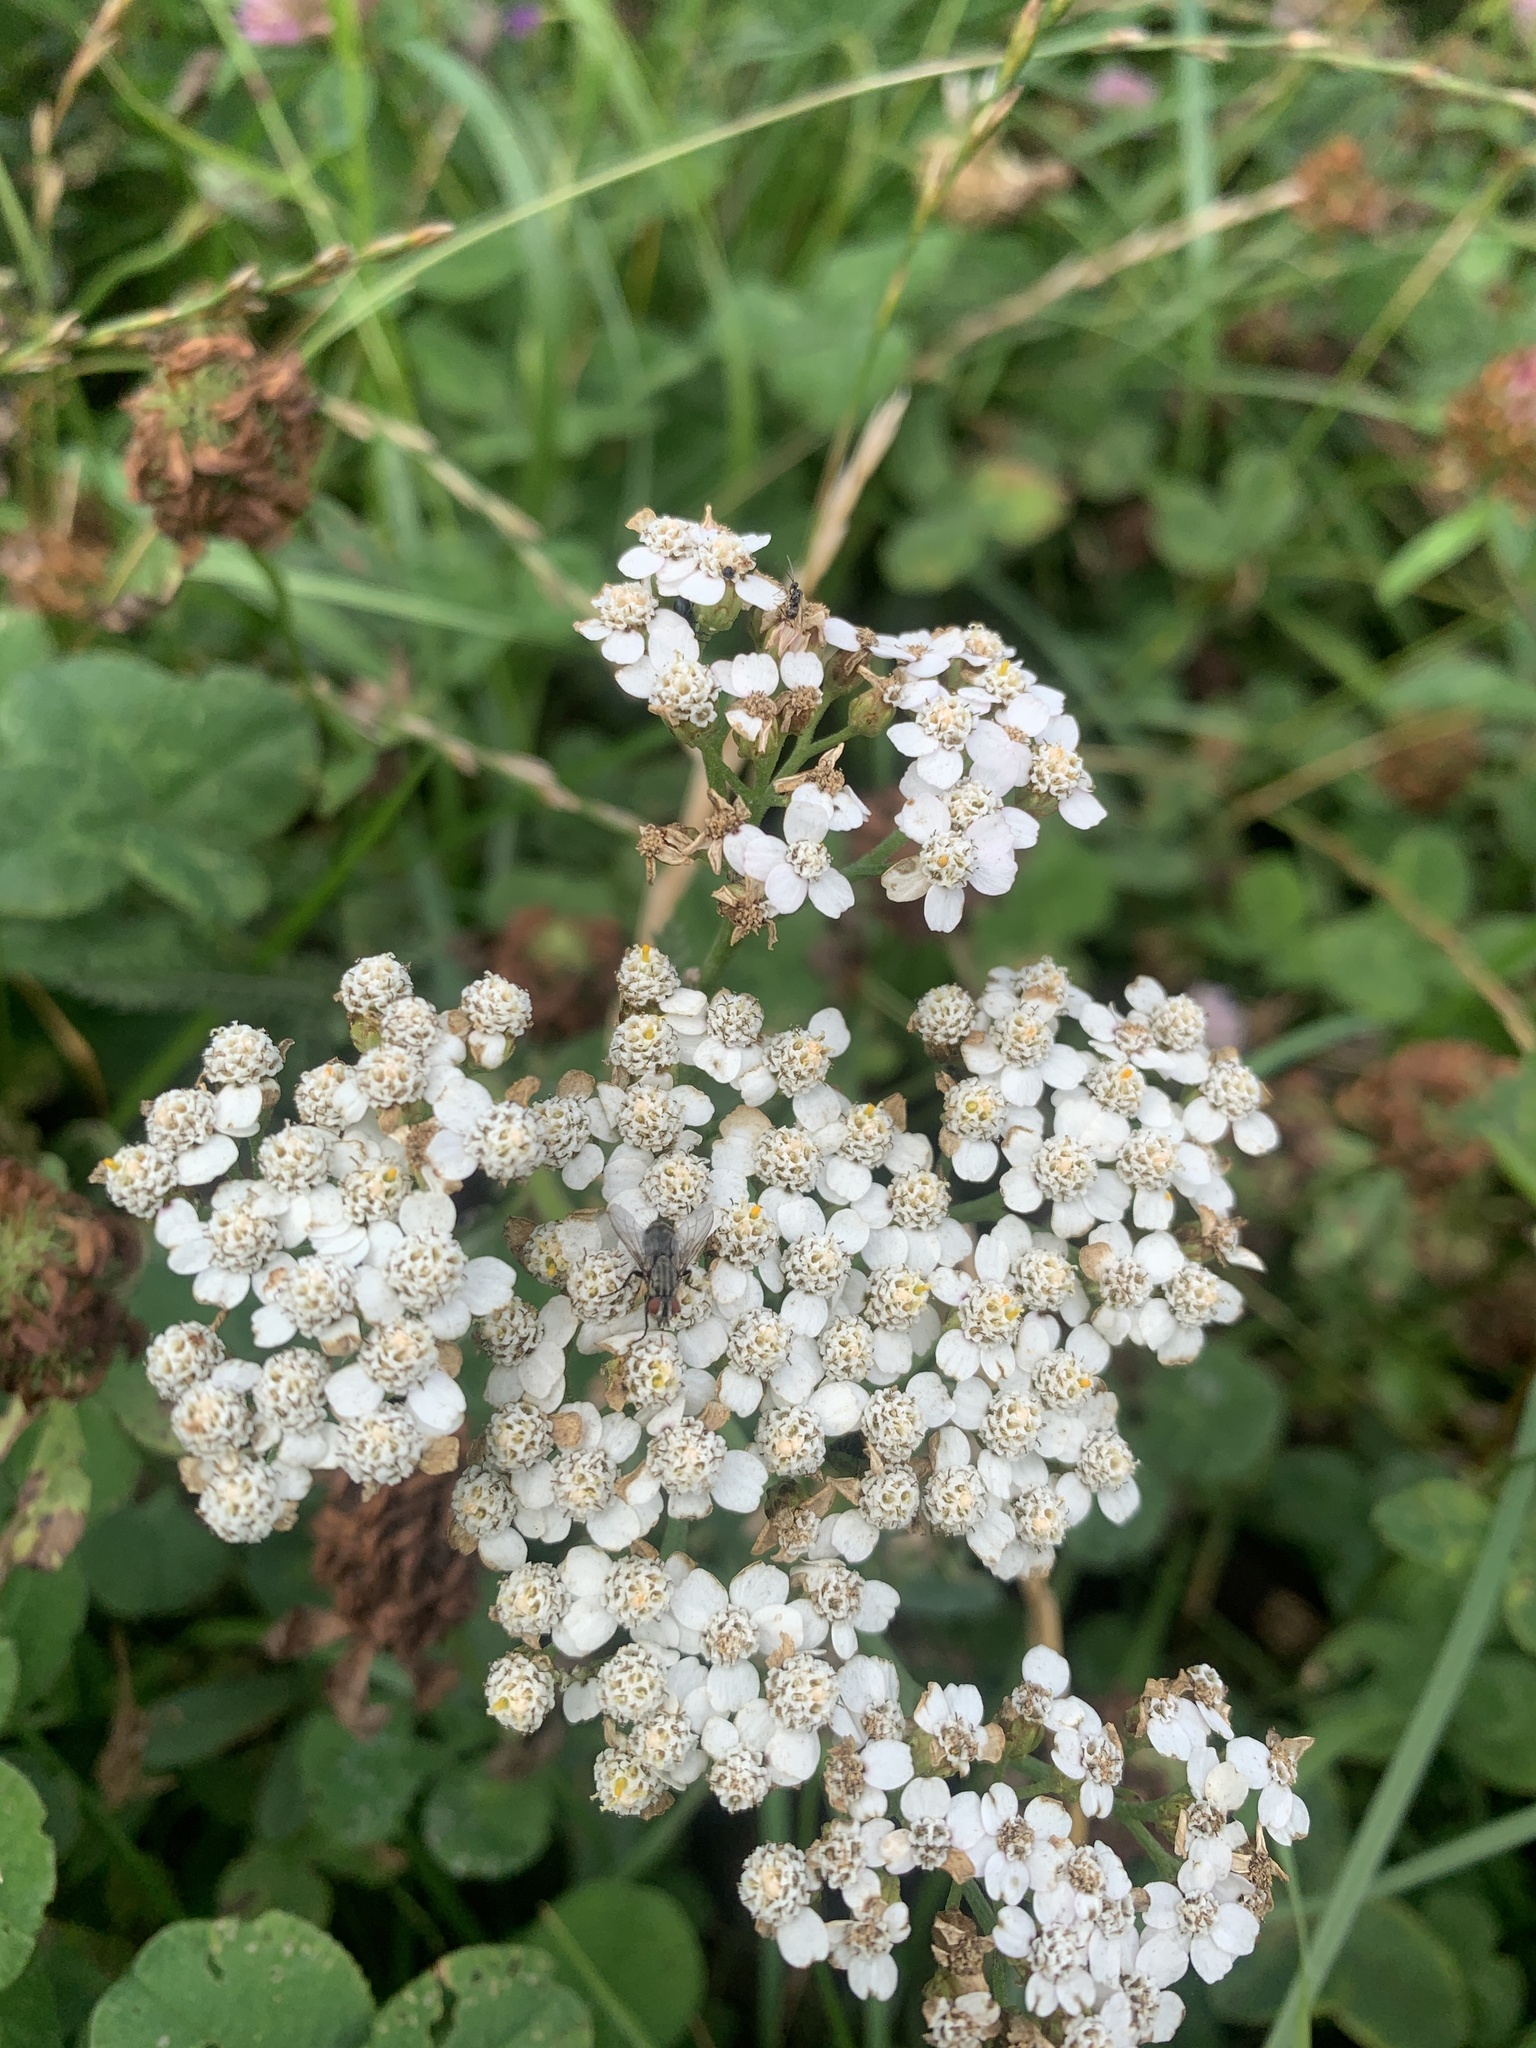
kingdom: Plantae
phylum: Tracheophyta
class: Magnoliopsida
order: Asterales
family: Asteraceae
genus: Achillea
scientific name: Achillea millefolium
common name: Yarrow
